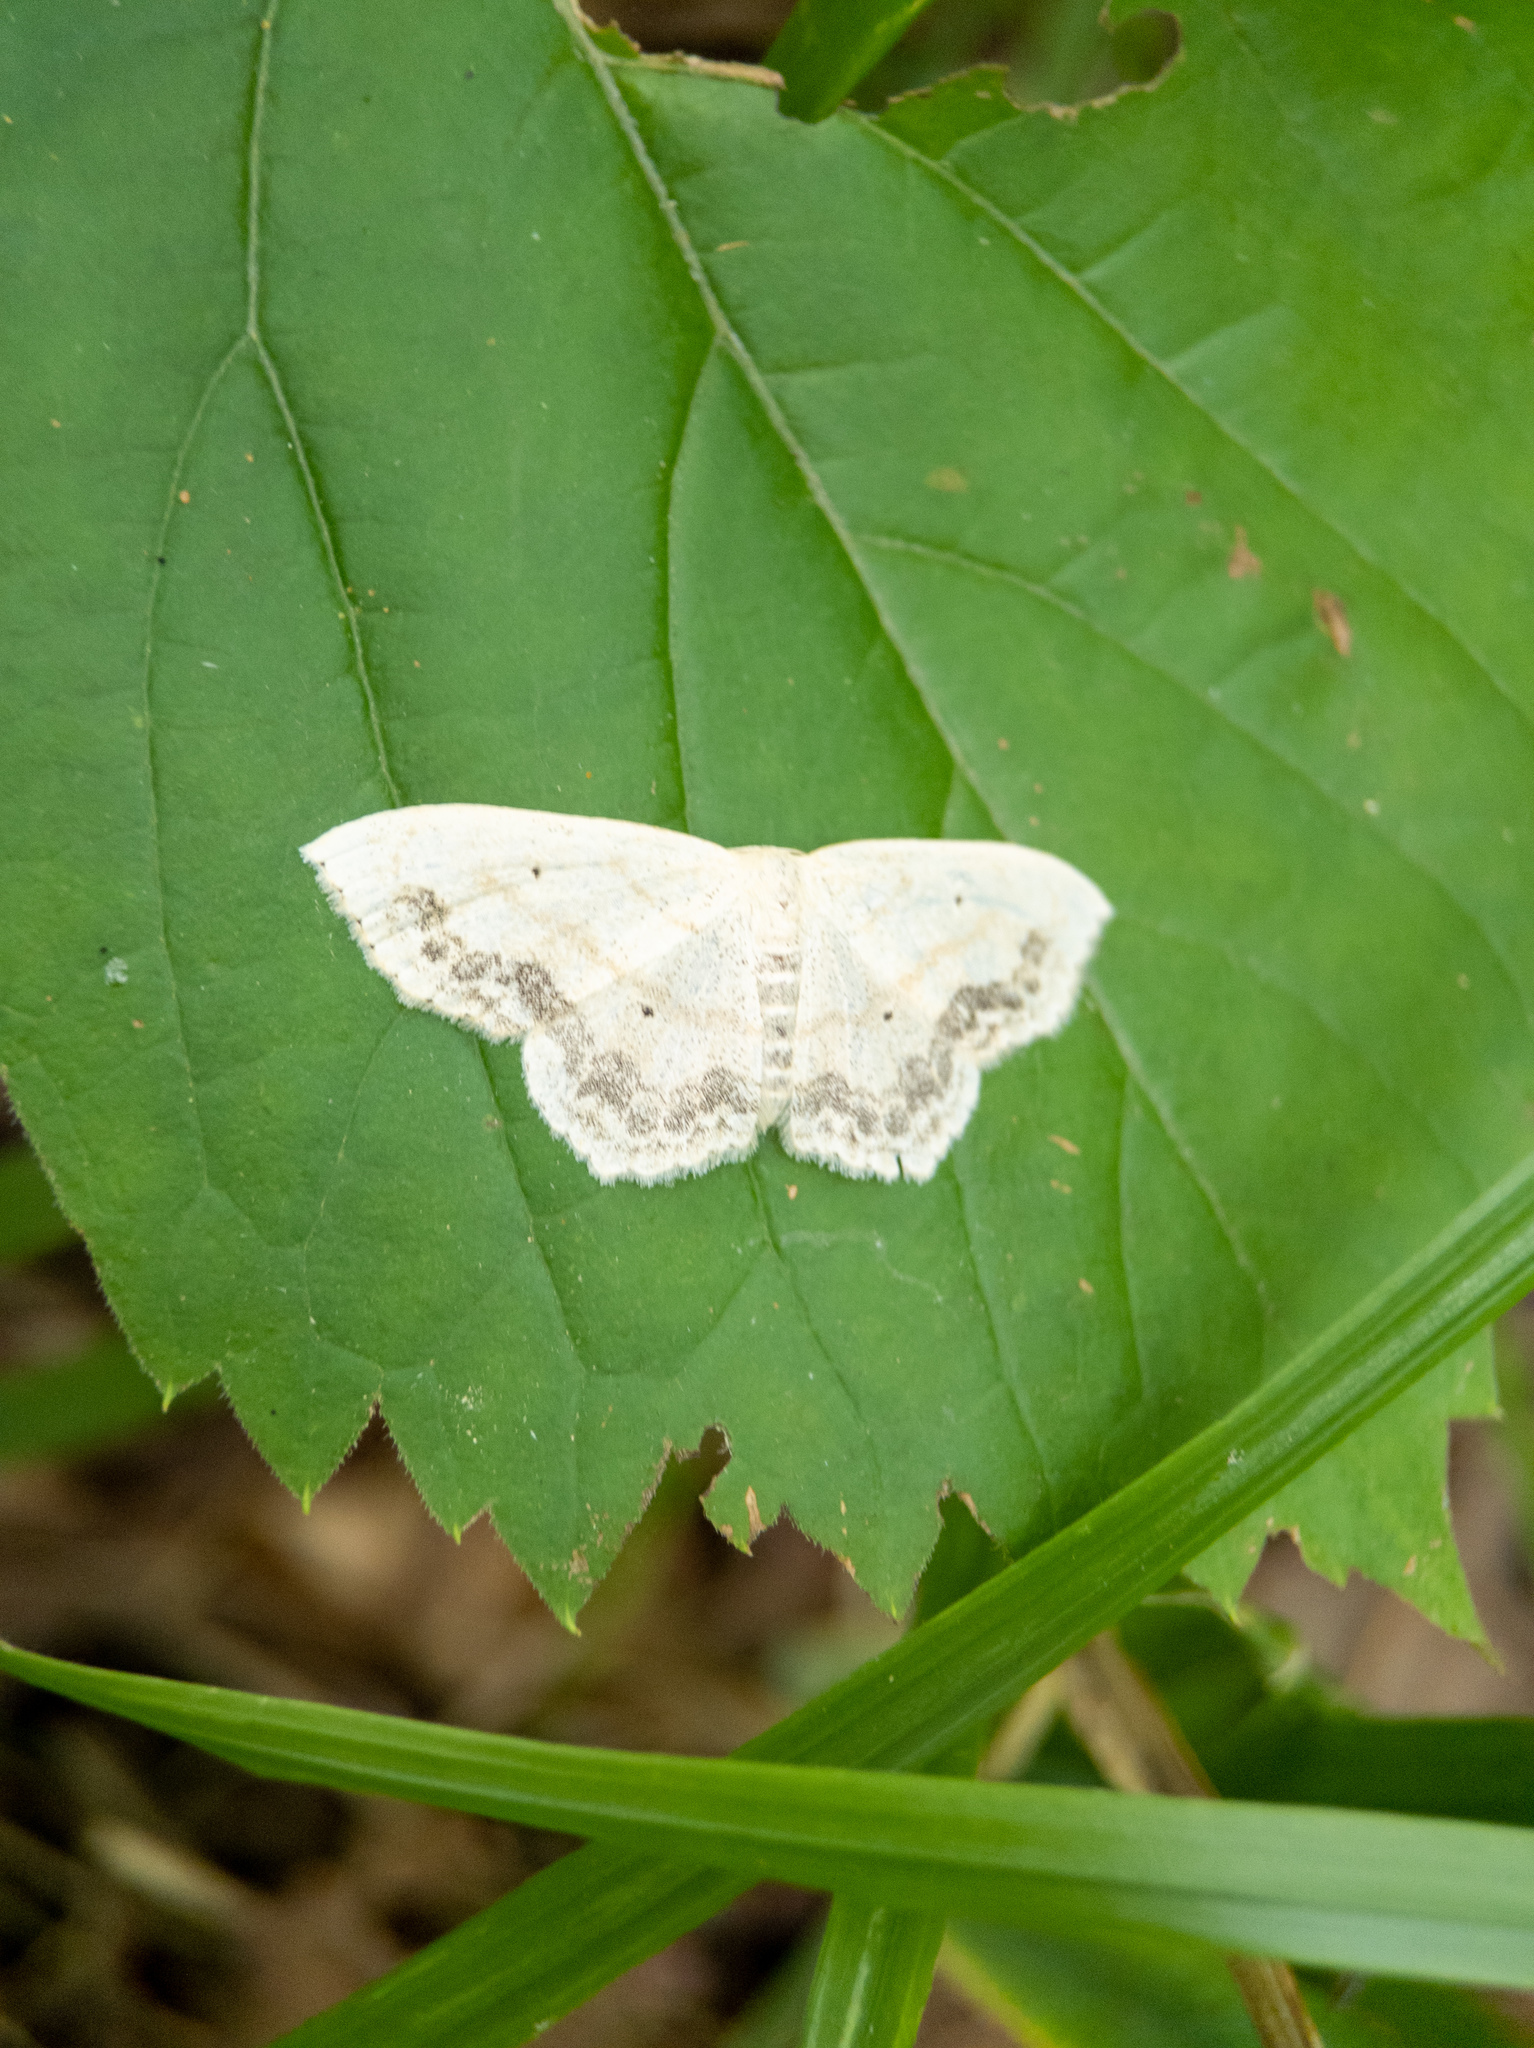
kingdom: Animalia
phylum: Arthropoda
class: Insecta
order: Lepidoptera
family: Geometridae
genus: Scopula
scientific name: Scopula limboundata
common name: Large lace border
